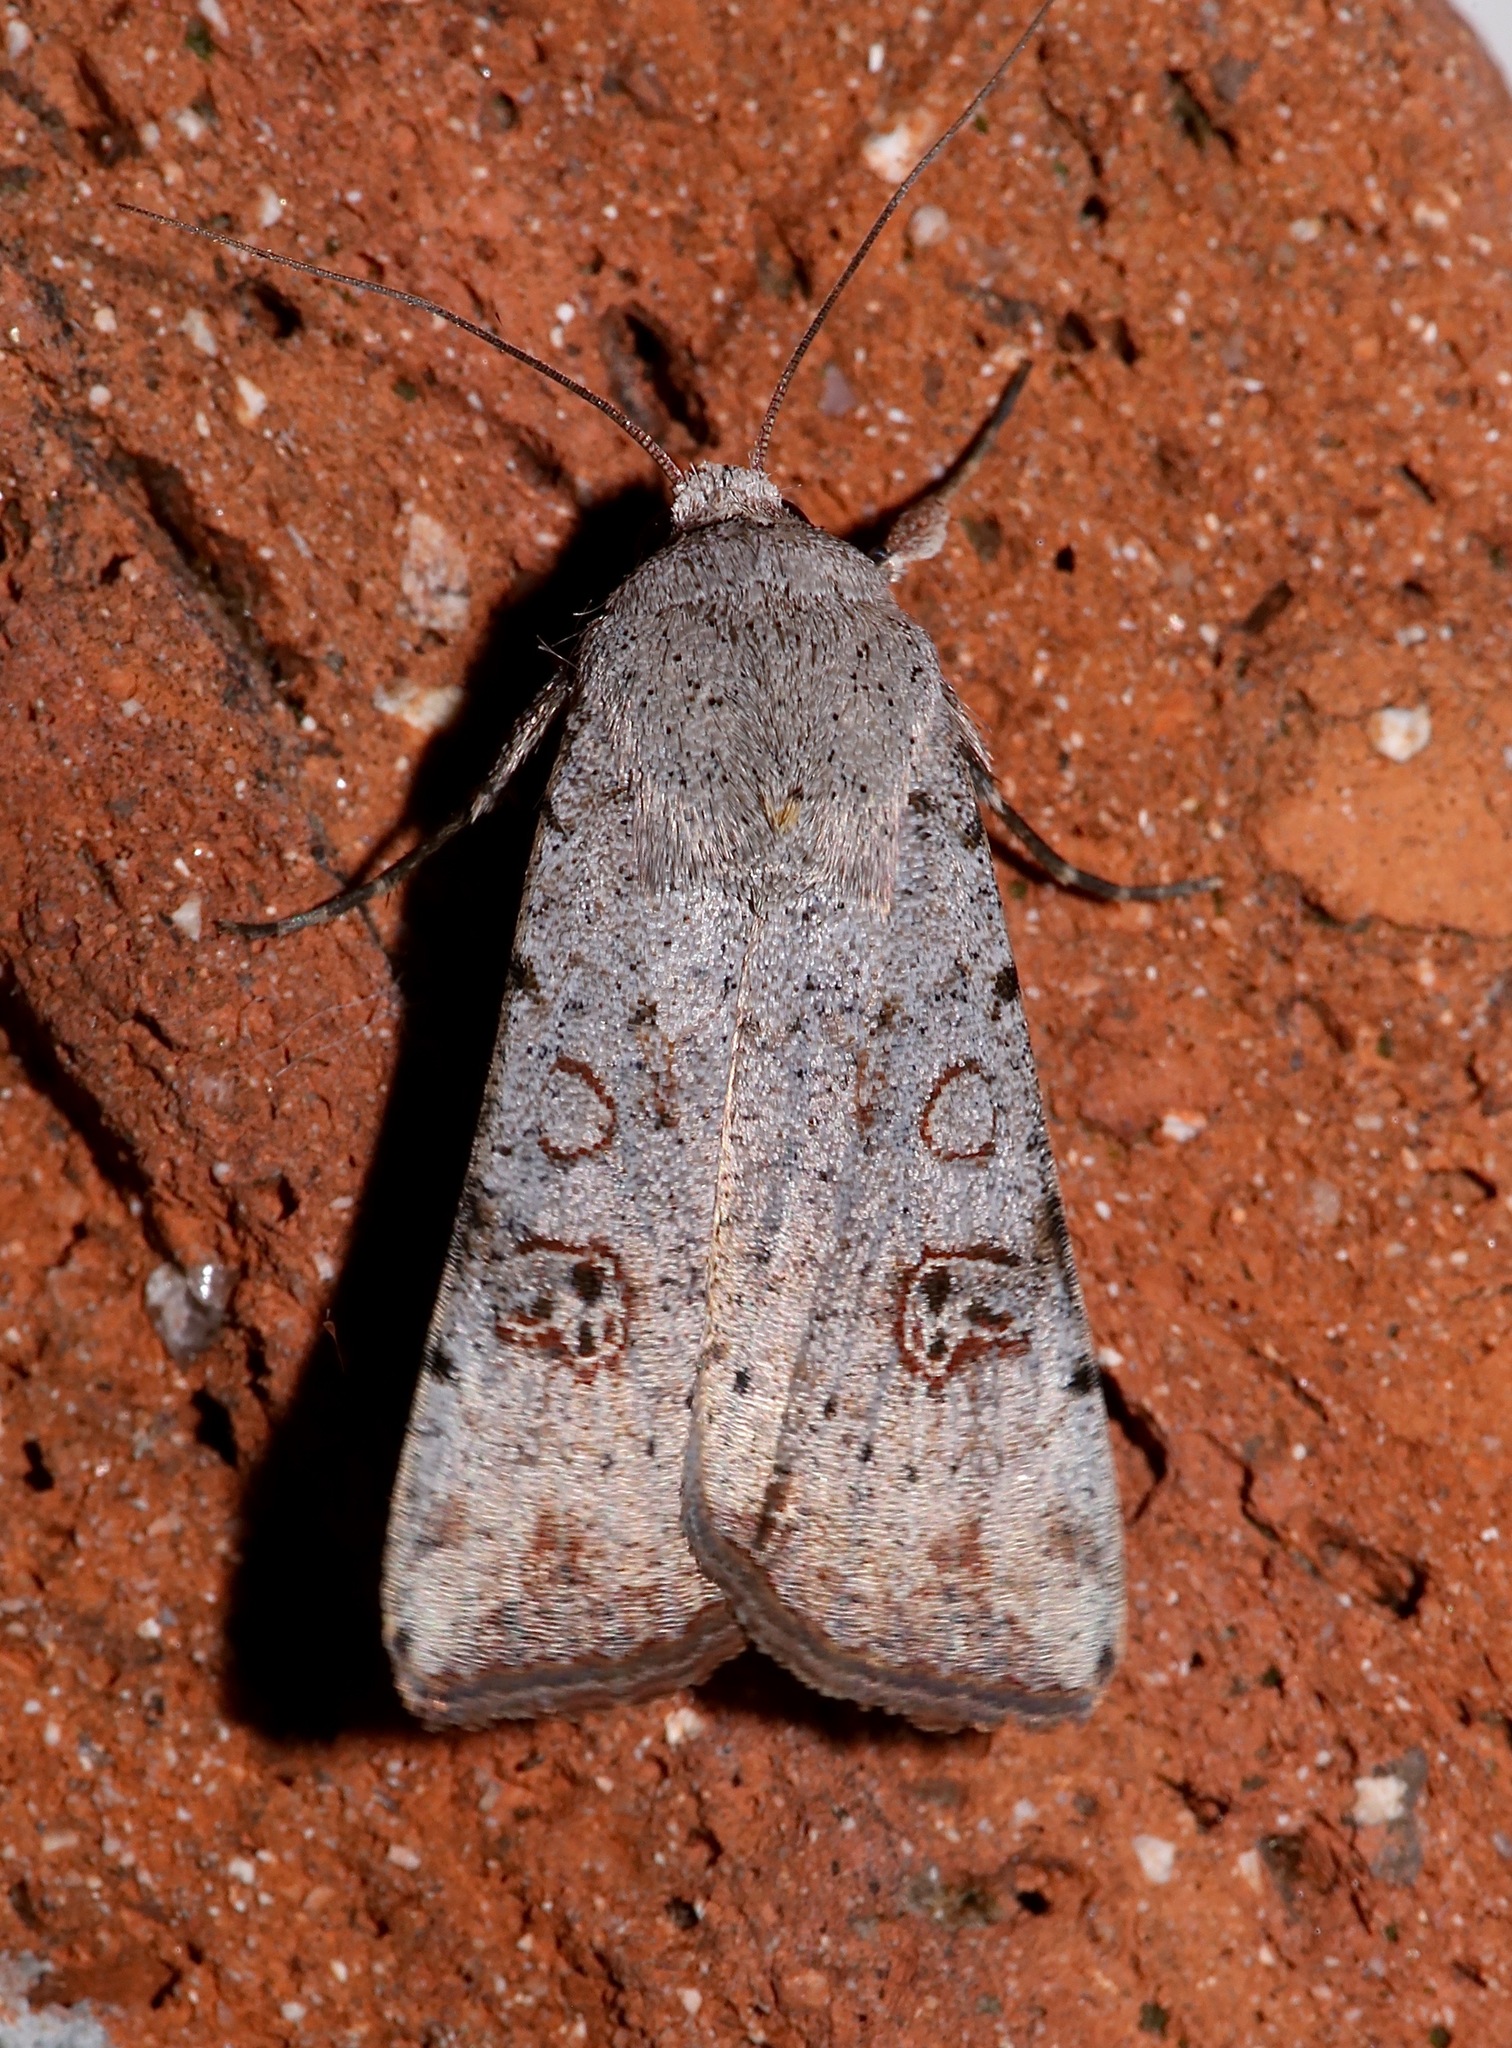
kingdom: Animalia
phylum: Arthropoda
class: Insecta
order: Lepidoptera
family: Noctuidae
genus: Anicla
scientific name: Anicla infecta
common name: Green cutworm
